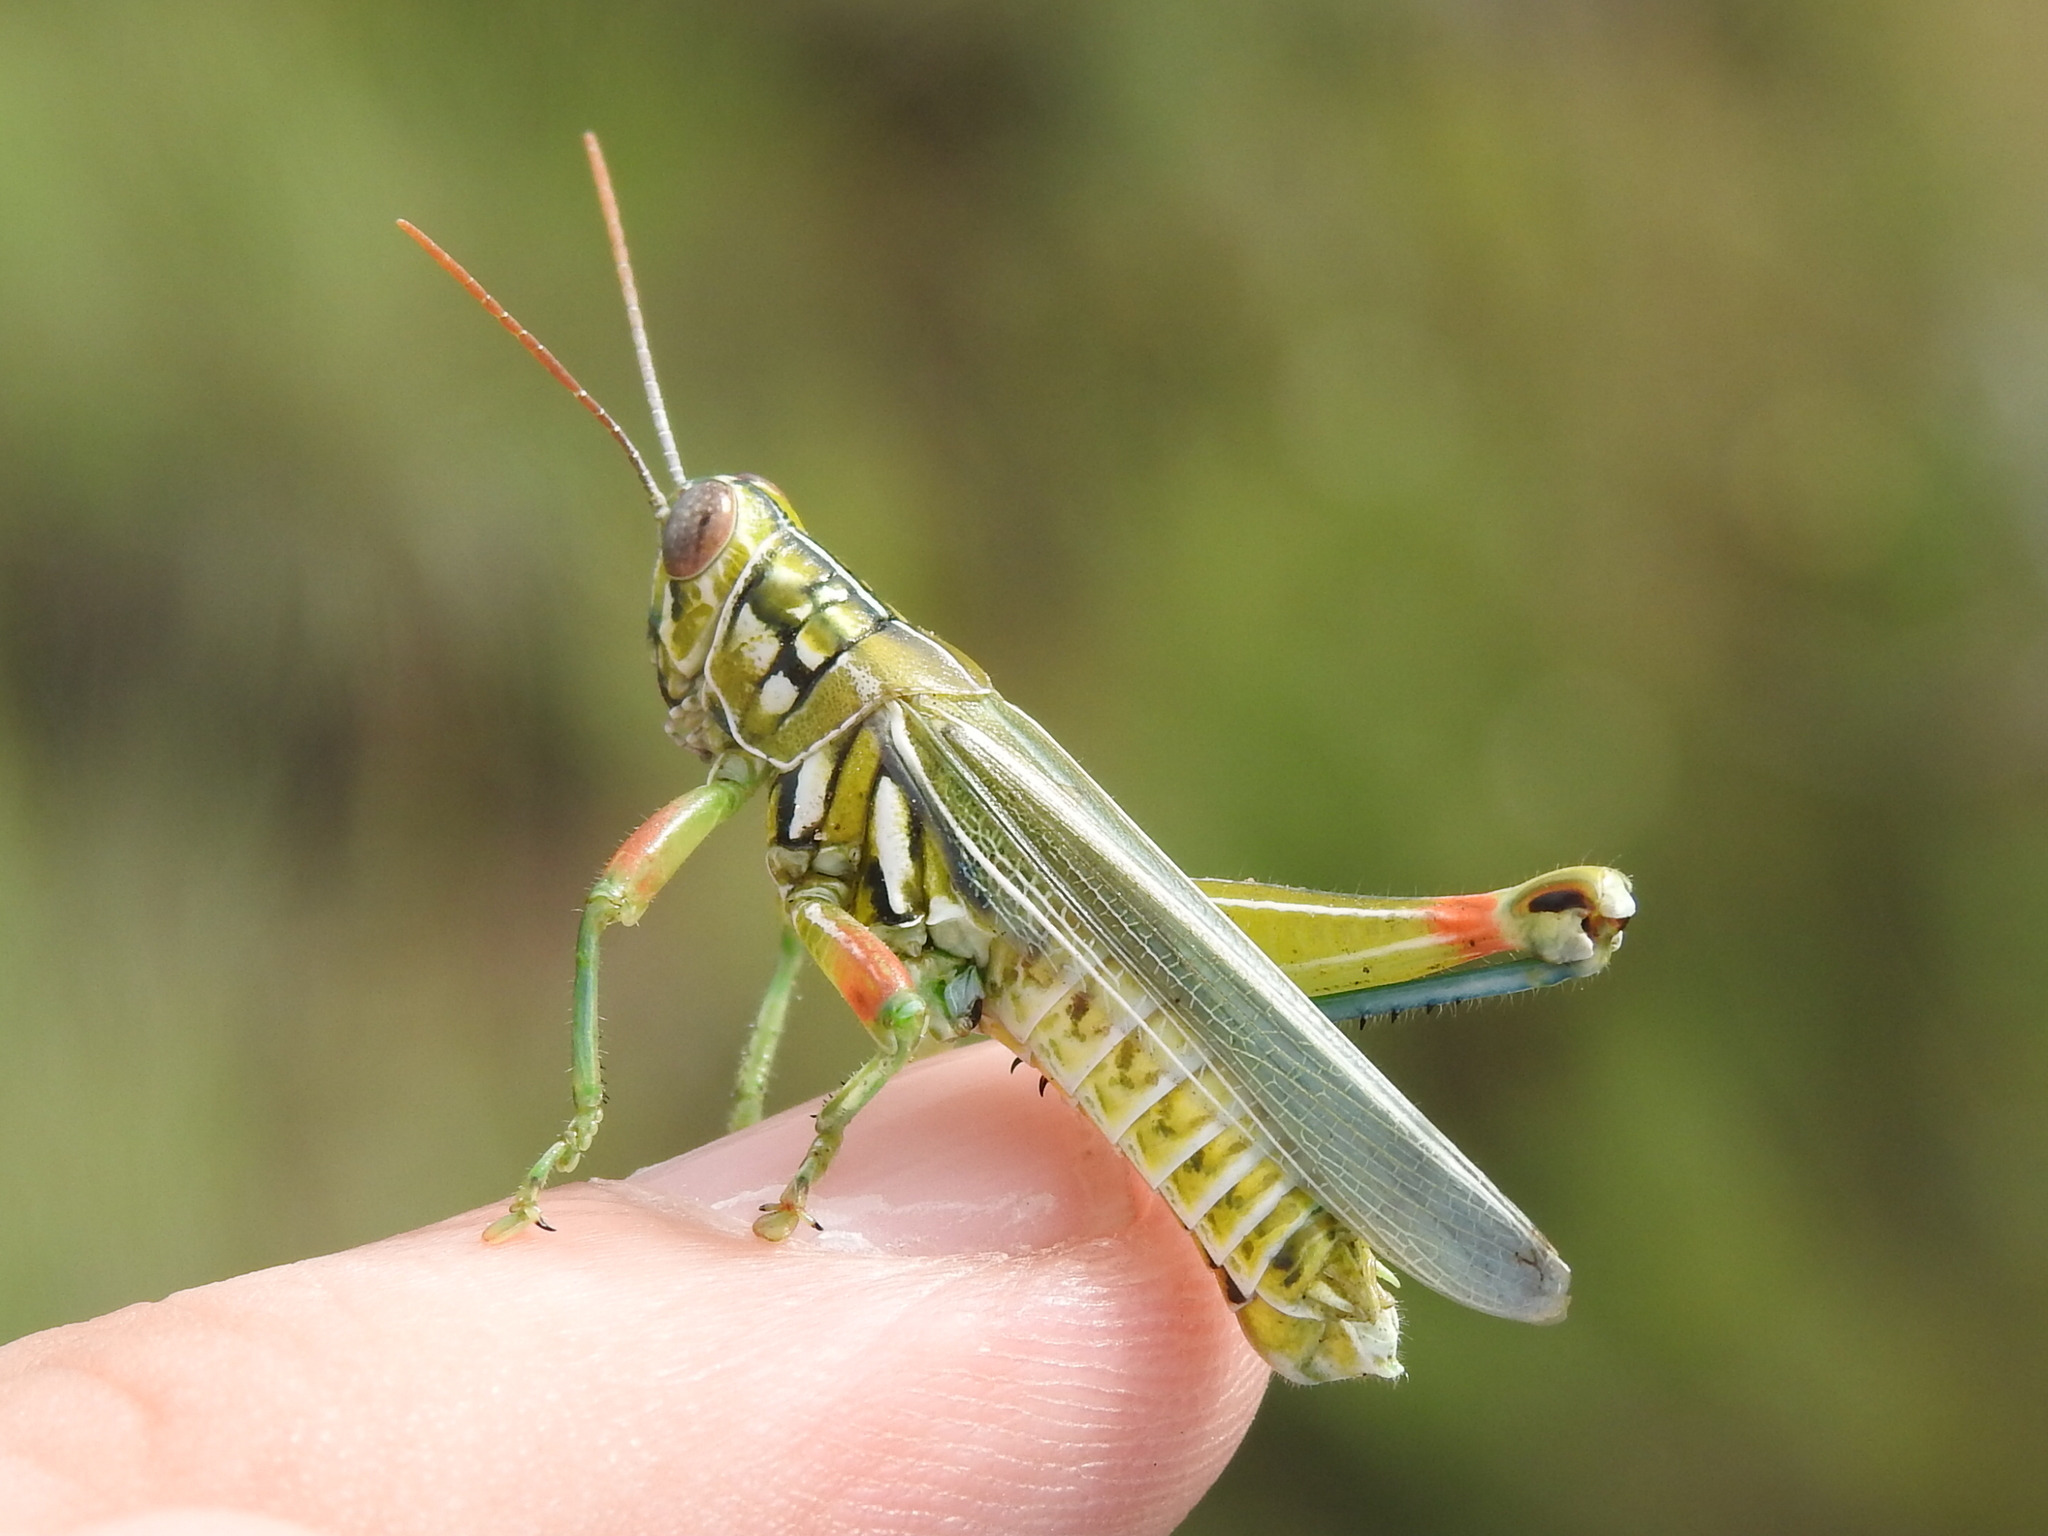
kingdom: Animalia
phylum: Arthropoda
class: Insecta
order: Orthoptera
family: Acrididae
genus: Hesperotettix
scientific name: Hesperotettix viridis
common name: Meadow purple-striped grasshopper
